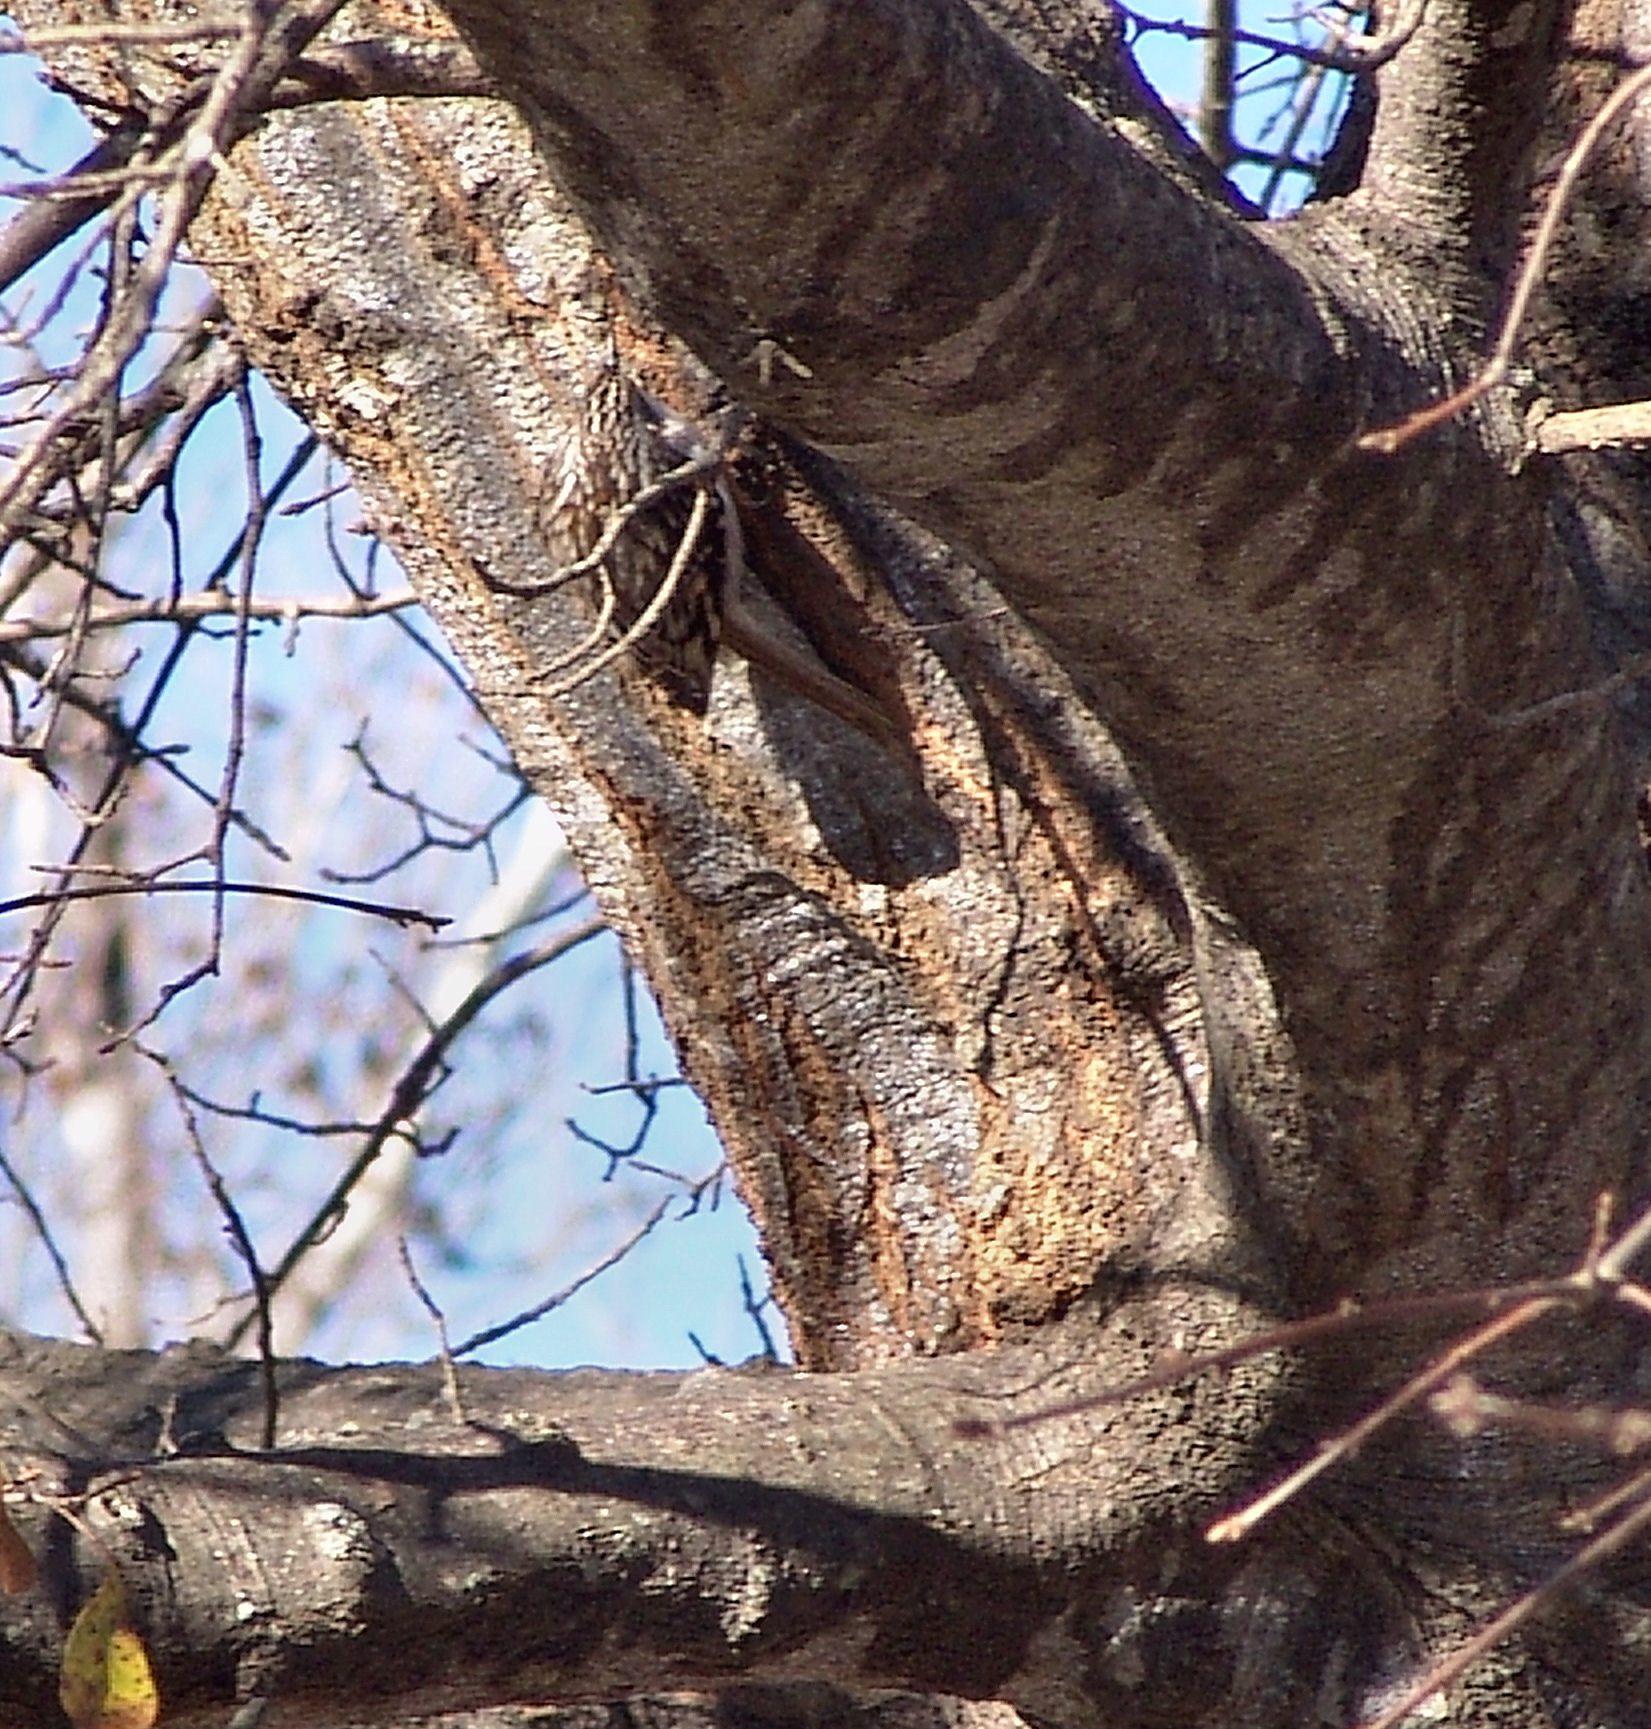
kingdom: Animalia
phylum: Chordata
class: Aves
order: Passeriformes
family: Certhiidae
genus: Certhia
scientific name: Certhia americana
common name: Brown creeper
